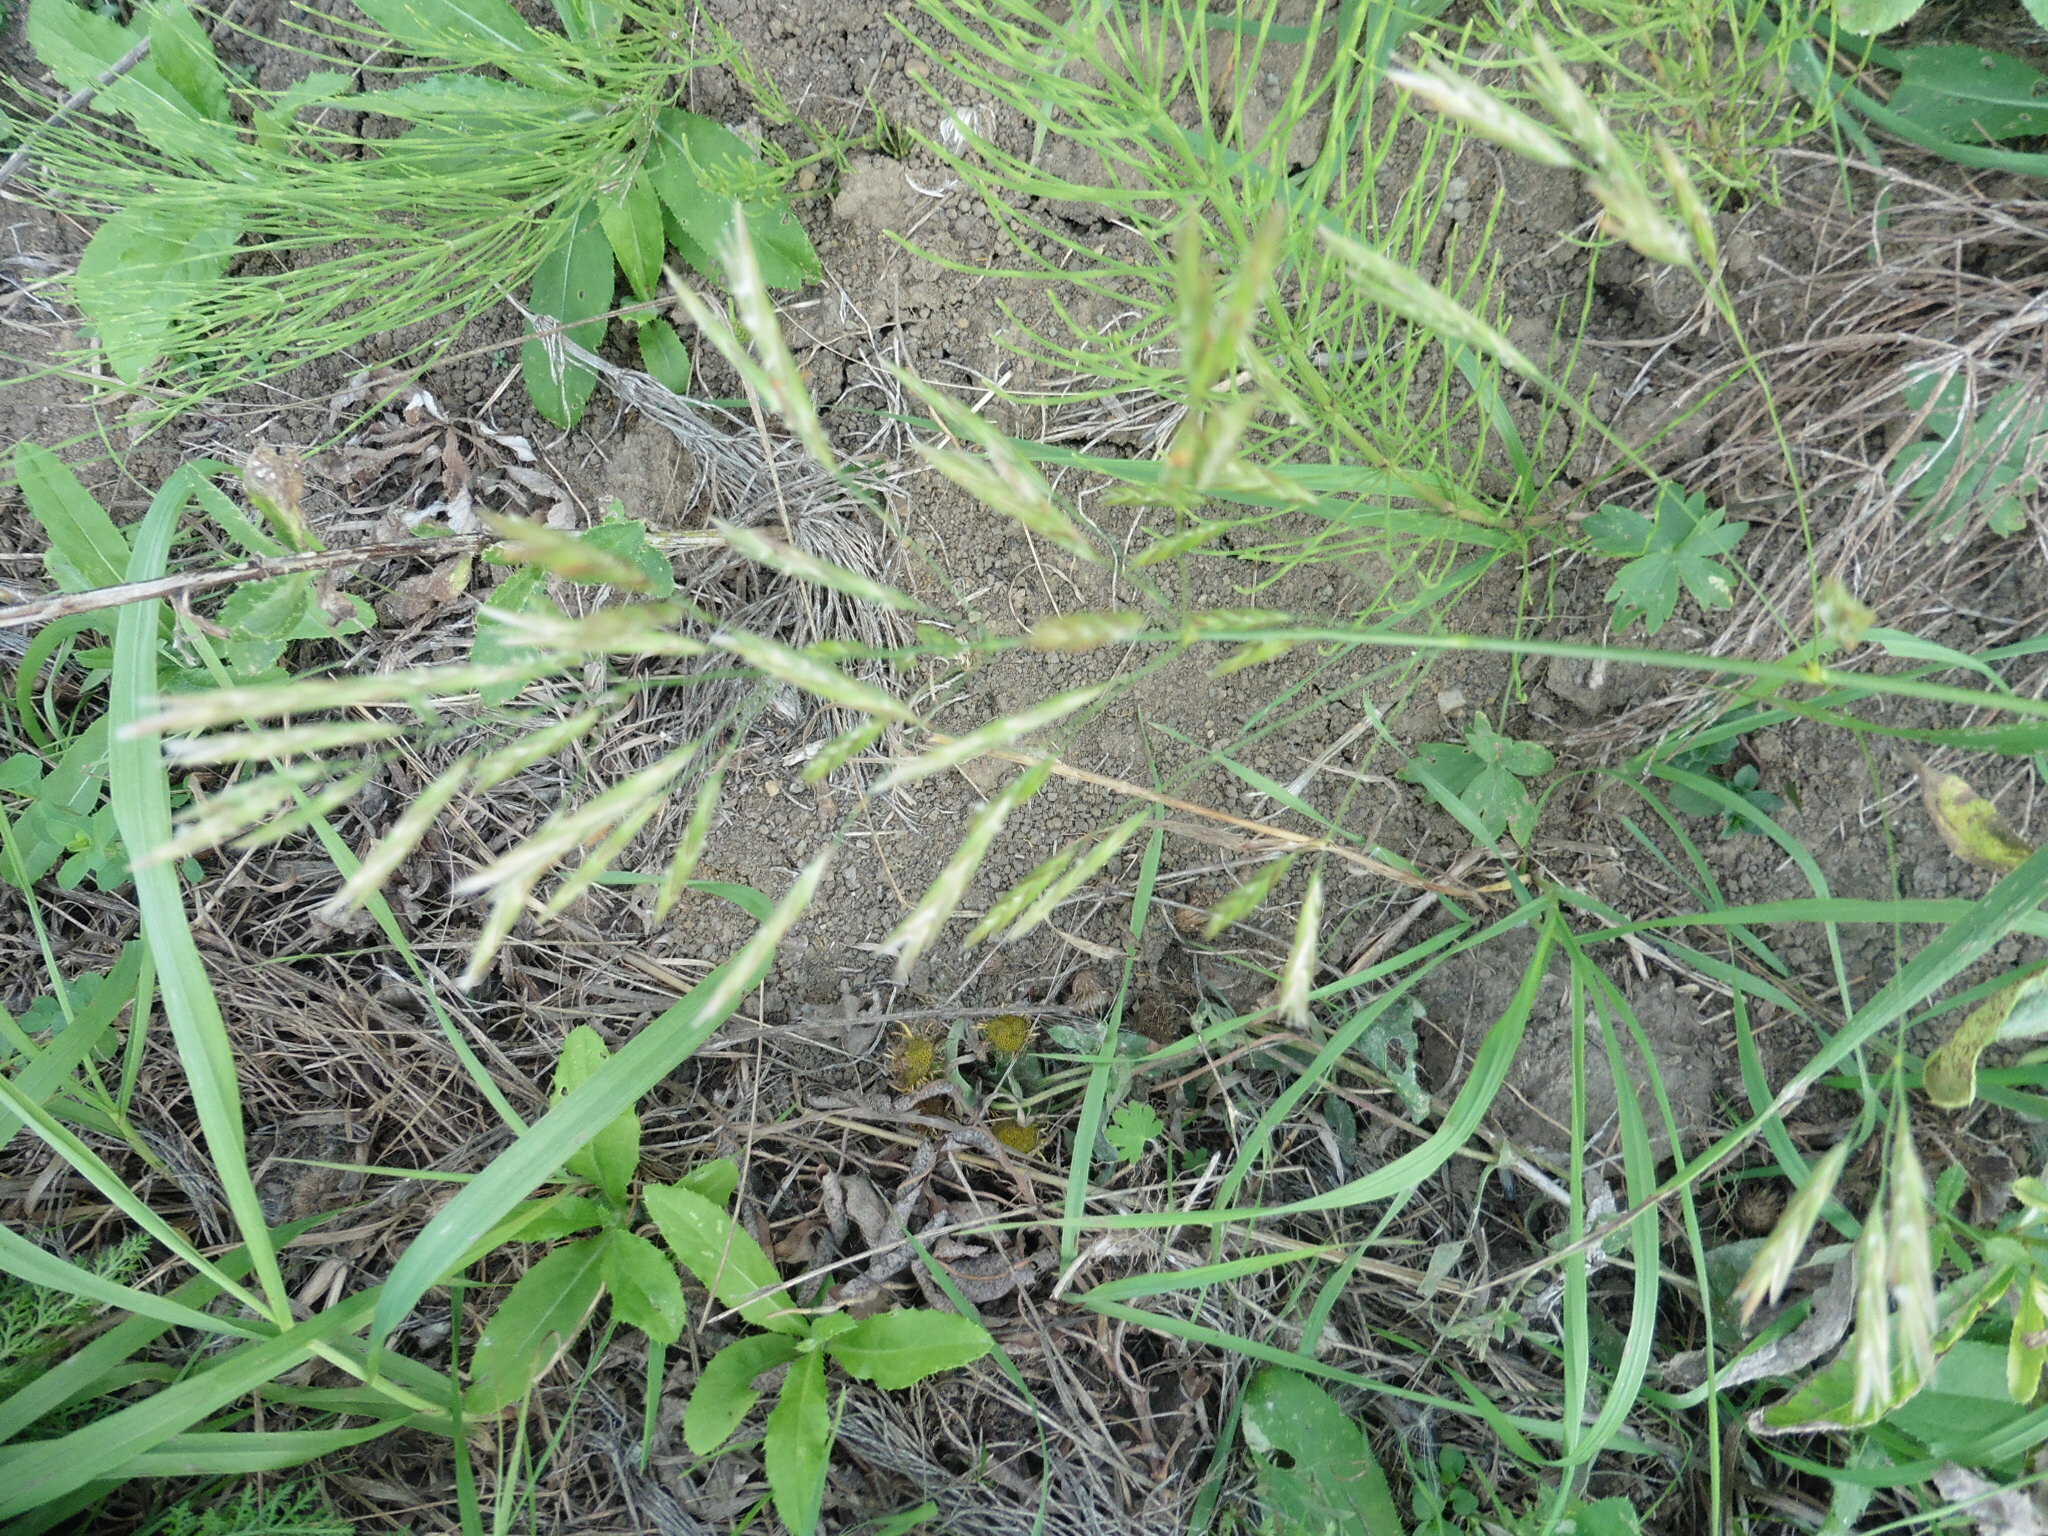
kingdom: Plantae
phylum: Tracheophyta
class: Liliopsida
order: Poales
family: Poaceae
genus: Bromus
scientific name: Bromus inermis
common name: Smooth brome
